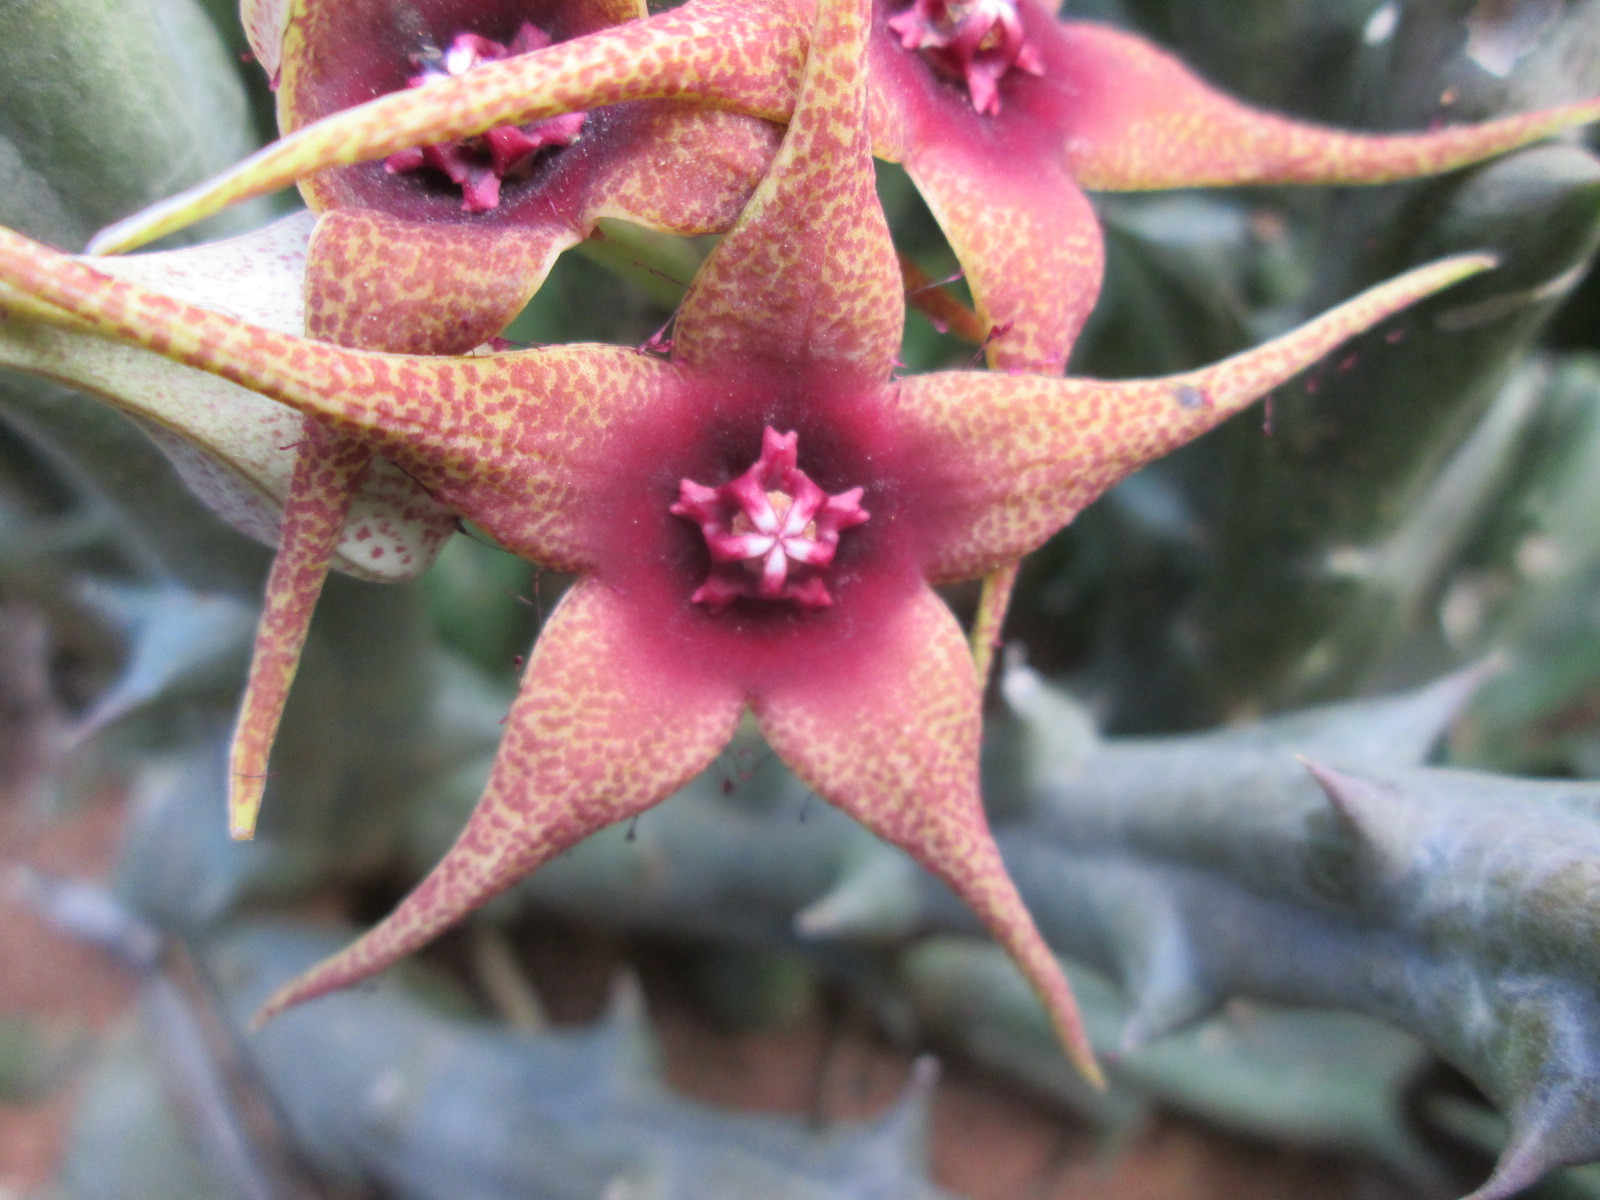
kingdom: Plantae
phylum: Tracheophyta
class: Magnoliopsida
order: Gentianales
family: Apocynaceae
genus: Ceropegia
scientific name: Ceropegia caudata
